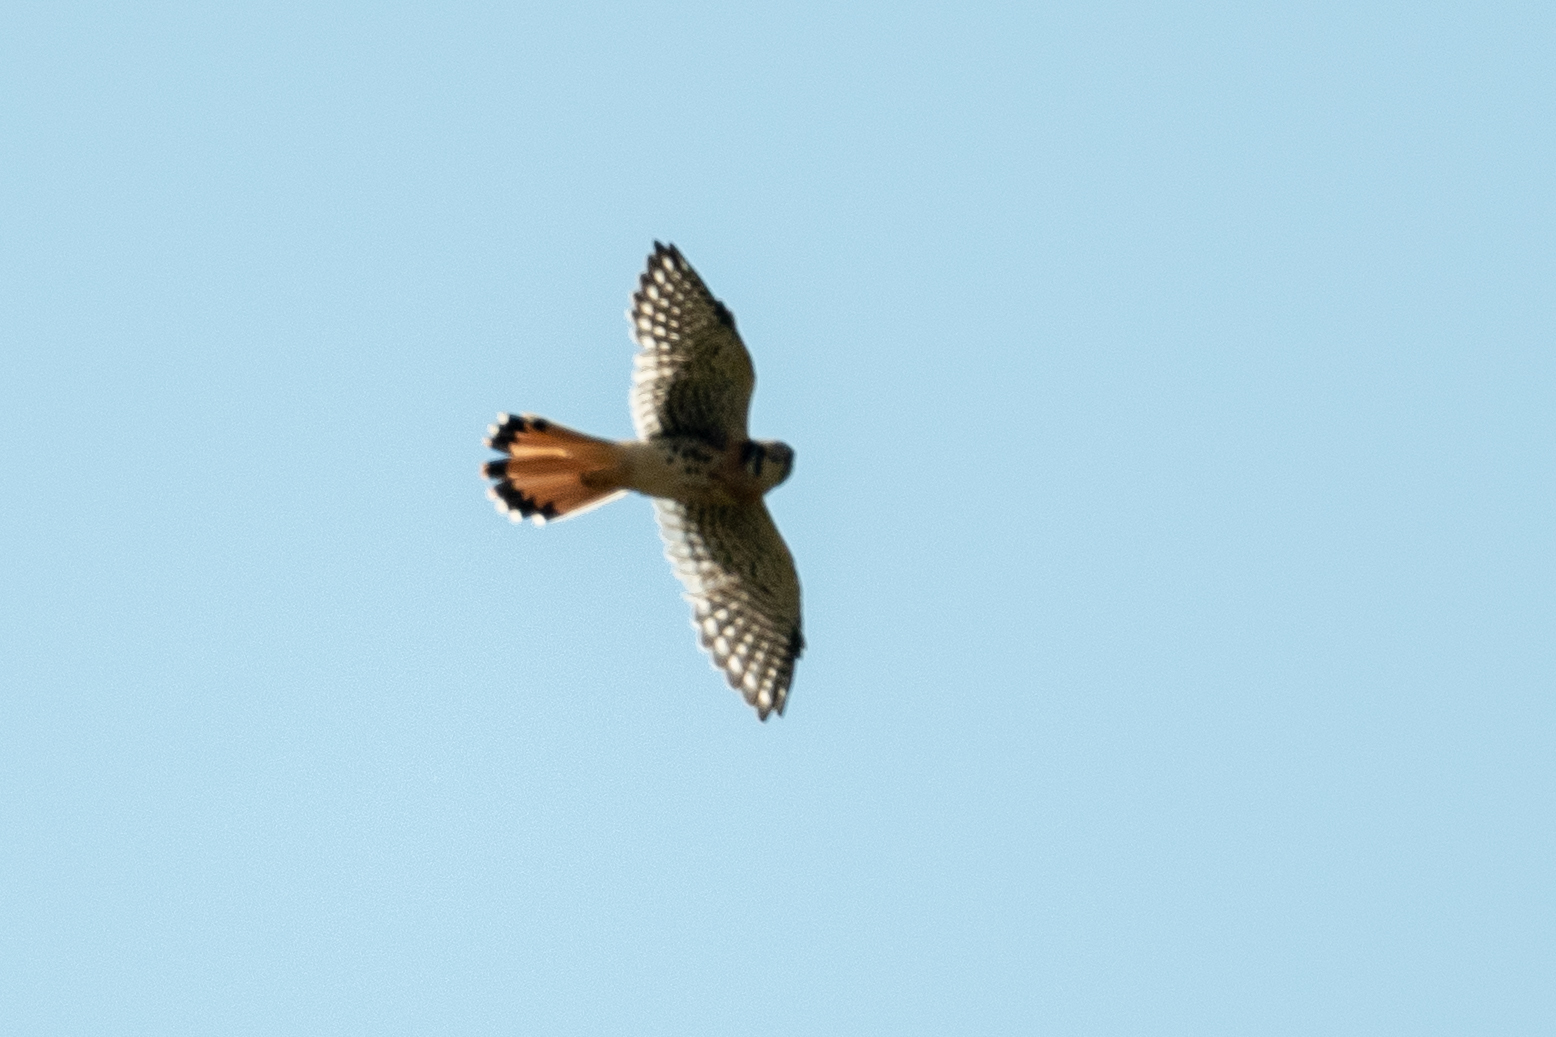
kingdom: Animalia
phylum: Chordata
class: Aves
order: Falconiformes
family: Falconidae
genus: Falco
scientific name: Falco sparverius
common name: American kestrel
